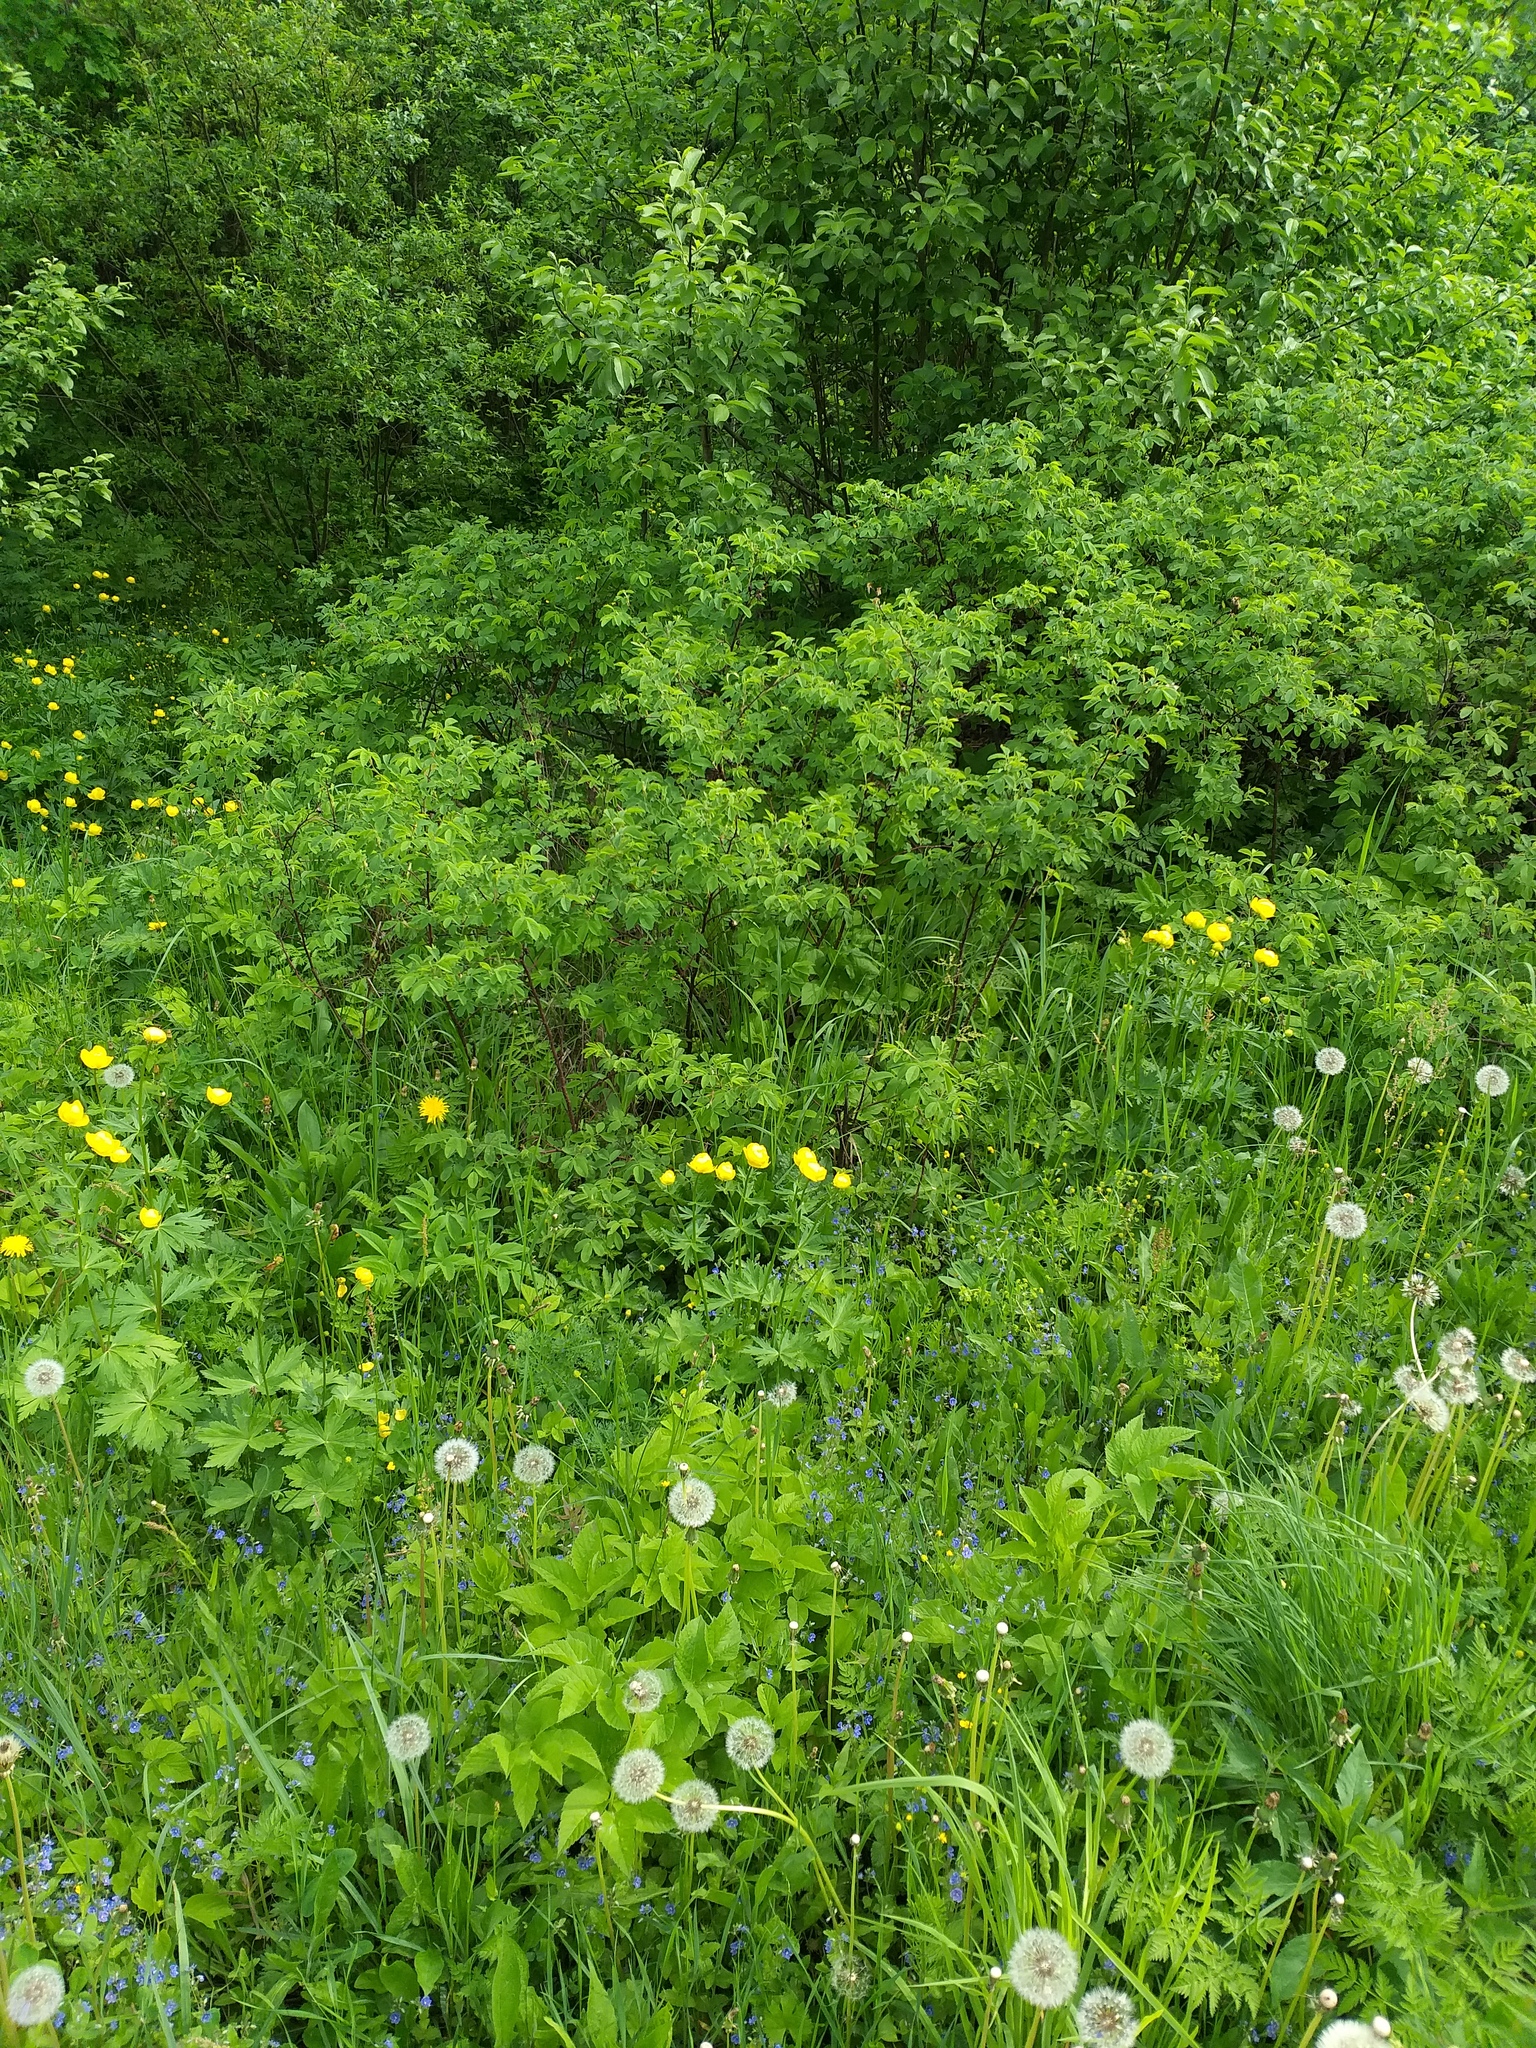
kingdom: Plantae
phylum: Tracheophyta
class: Magnoliopsida
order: Ranunculales
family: Ranunculaceae
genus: Trollius
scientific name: Trollius europaeus
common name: European globeflower
